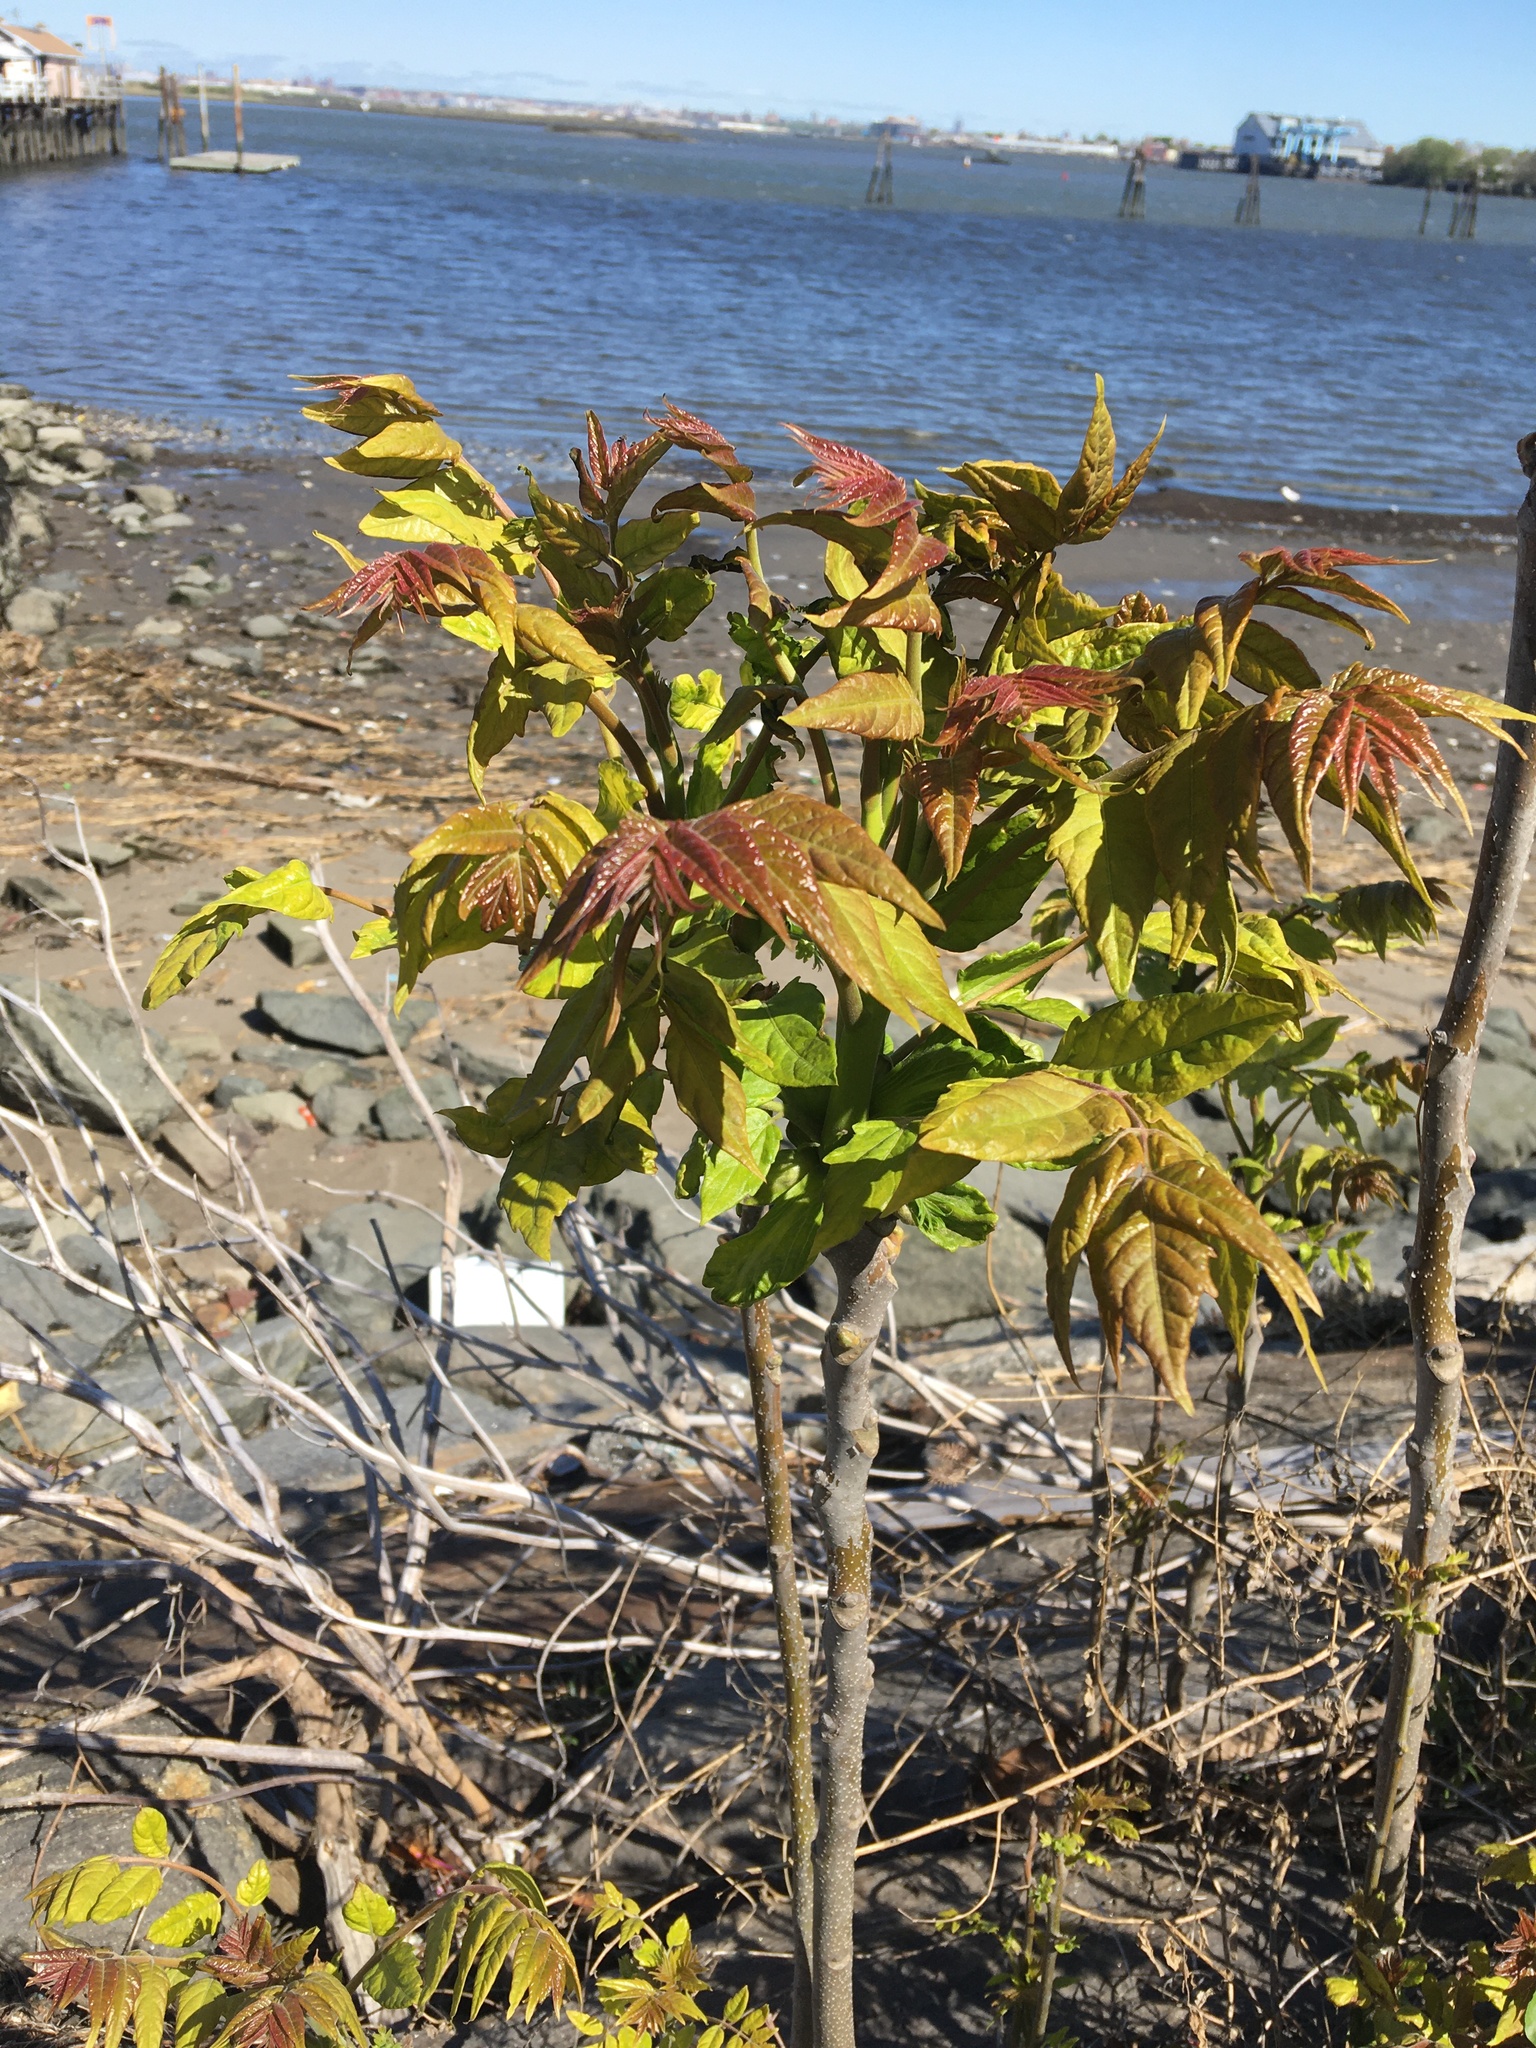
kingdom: Plantae
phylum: Tracheophyta
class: Magnoliopsida
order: Sapindales
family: Simaroubaceae
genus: Ailanthus
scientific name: Ailanthus altissima
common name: Tree-of-heaven
